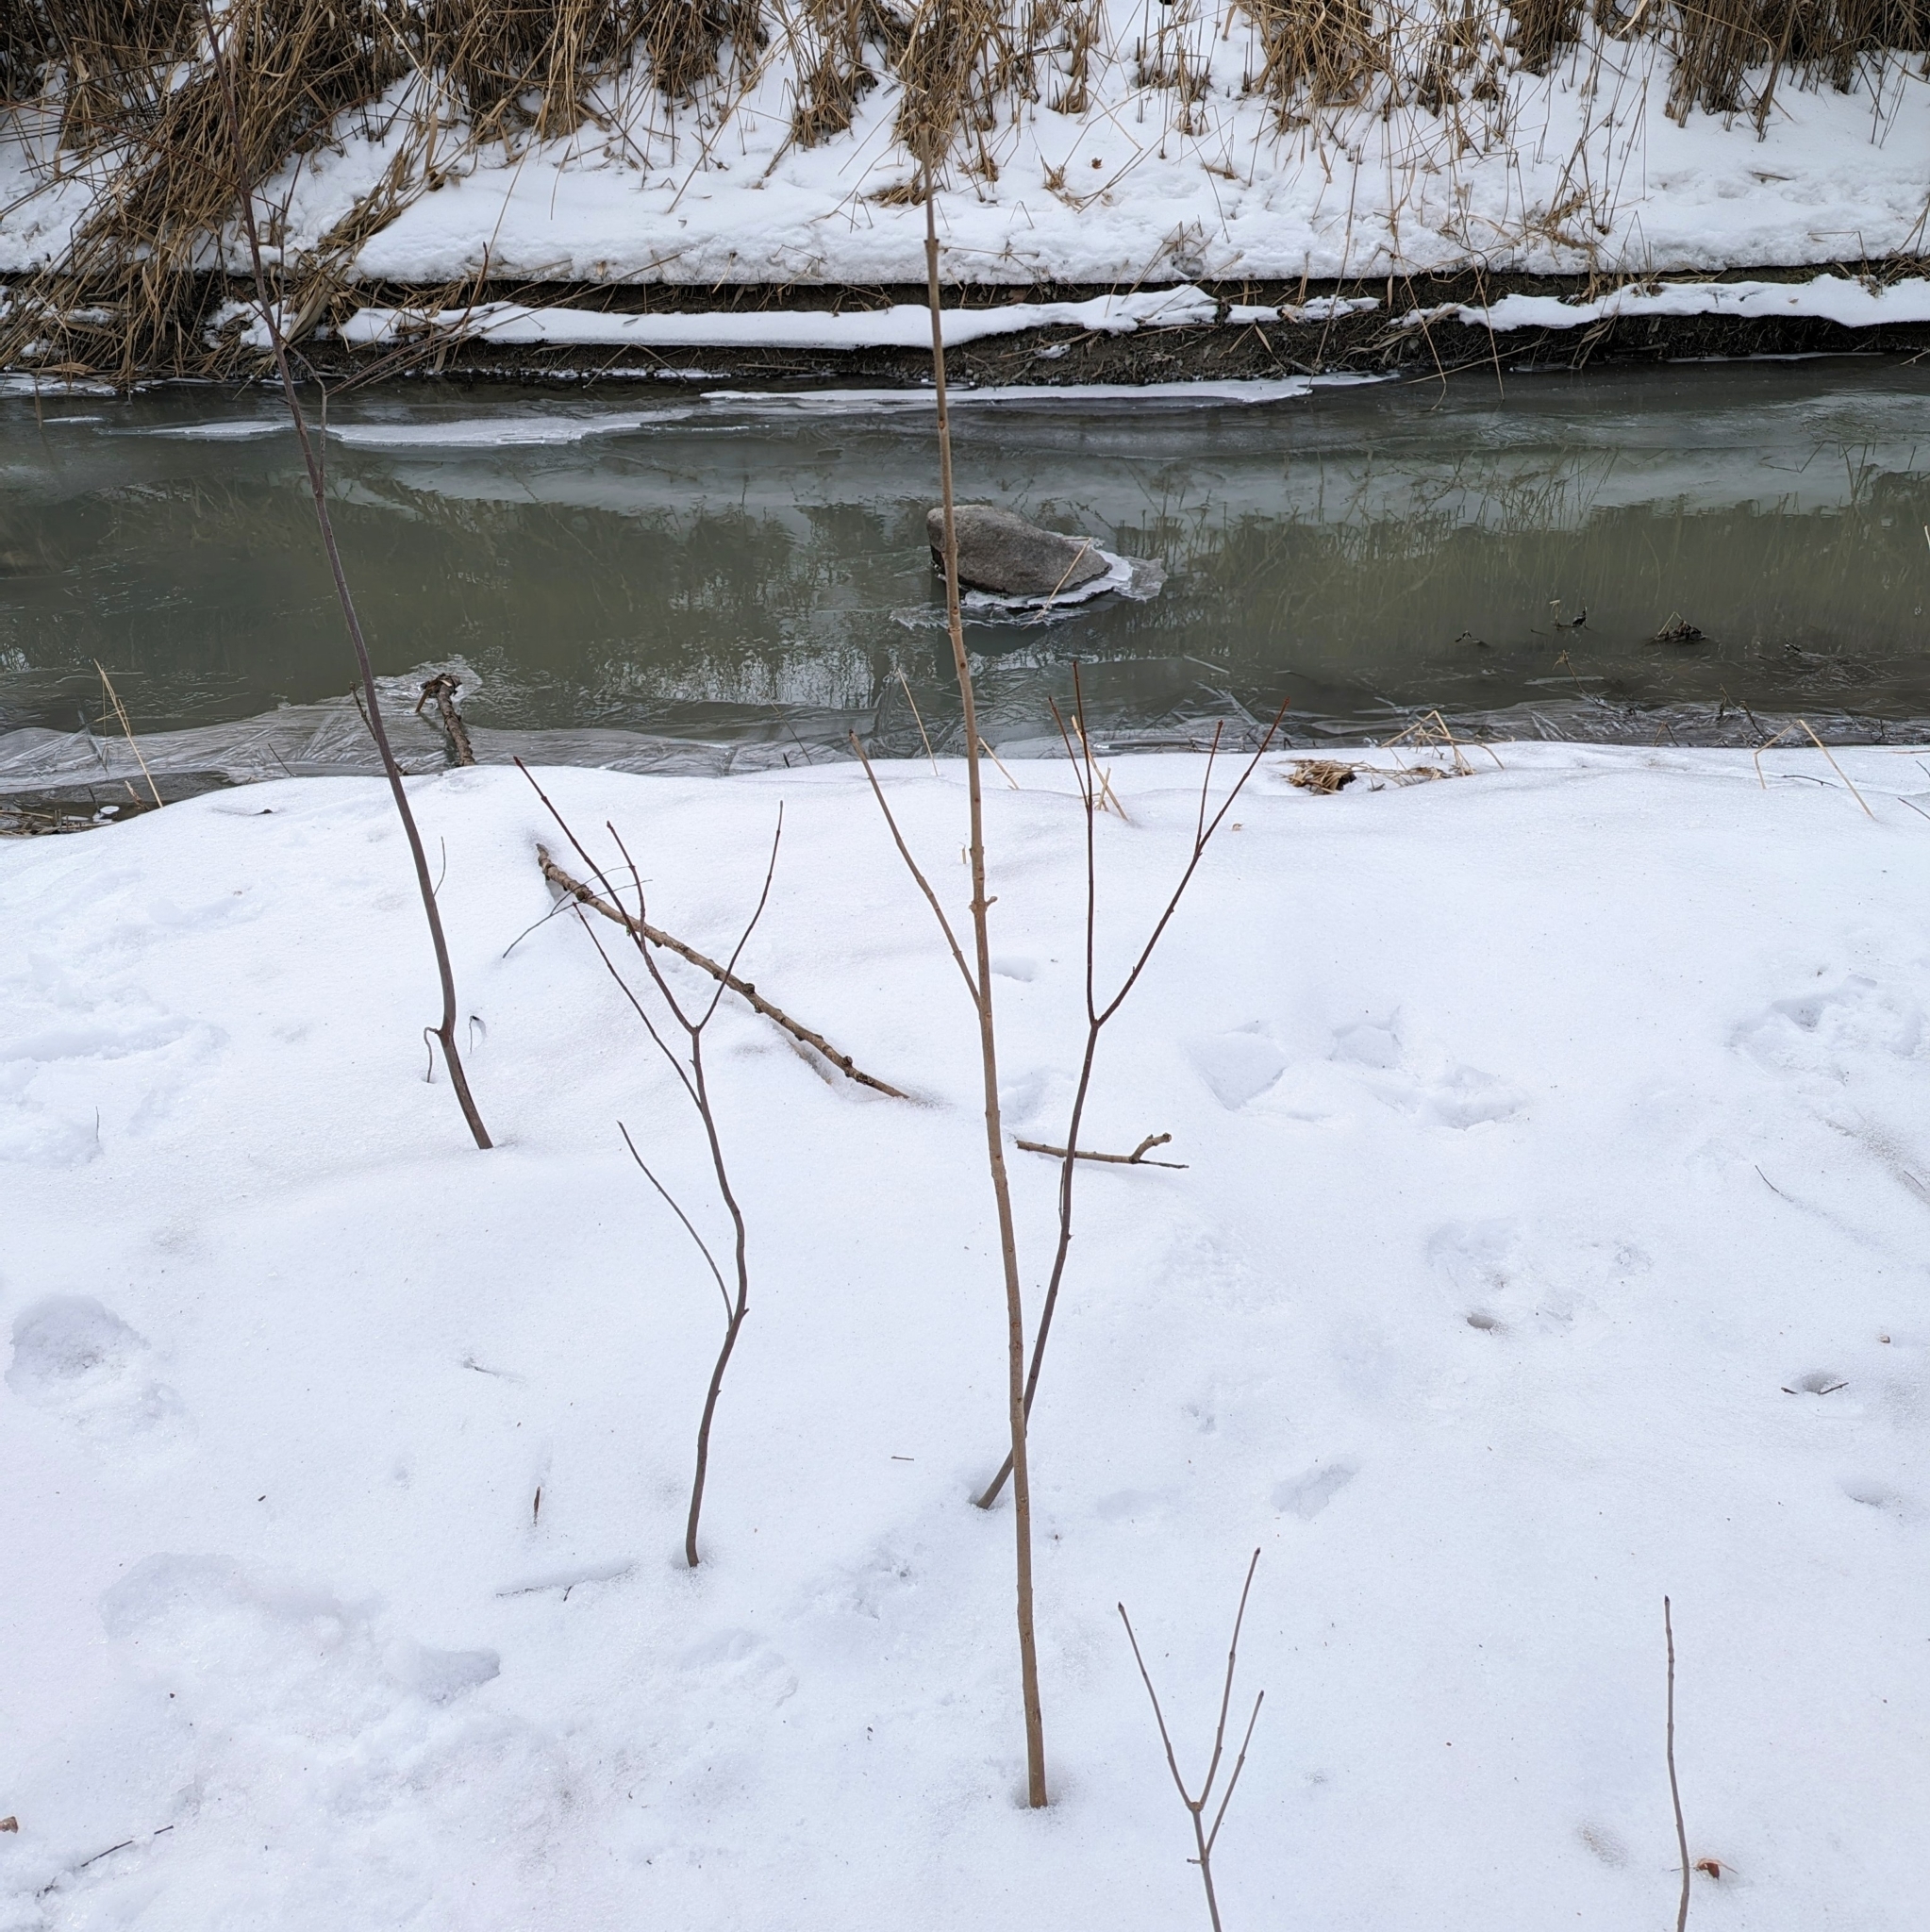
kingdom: Plantae
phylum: Tracheophyta
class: Magnoliopsida
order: Lamiales
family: Oleaceae
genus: Fraxinus
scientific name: Fraxinus pennsylvanica
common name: Green ash
